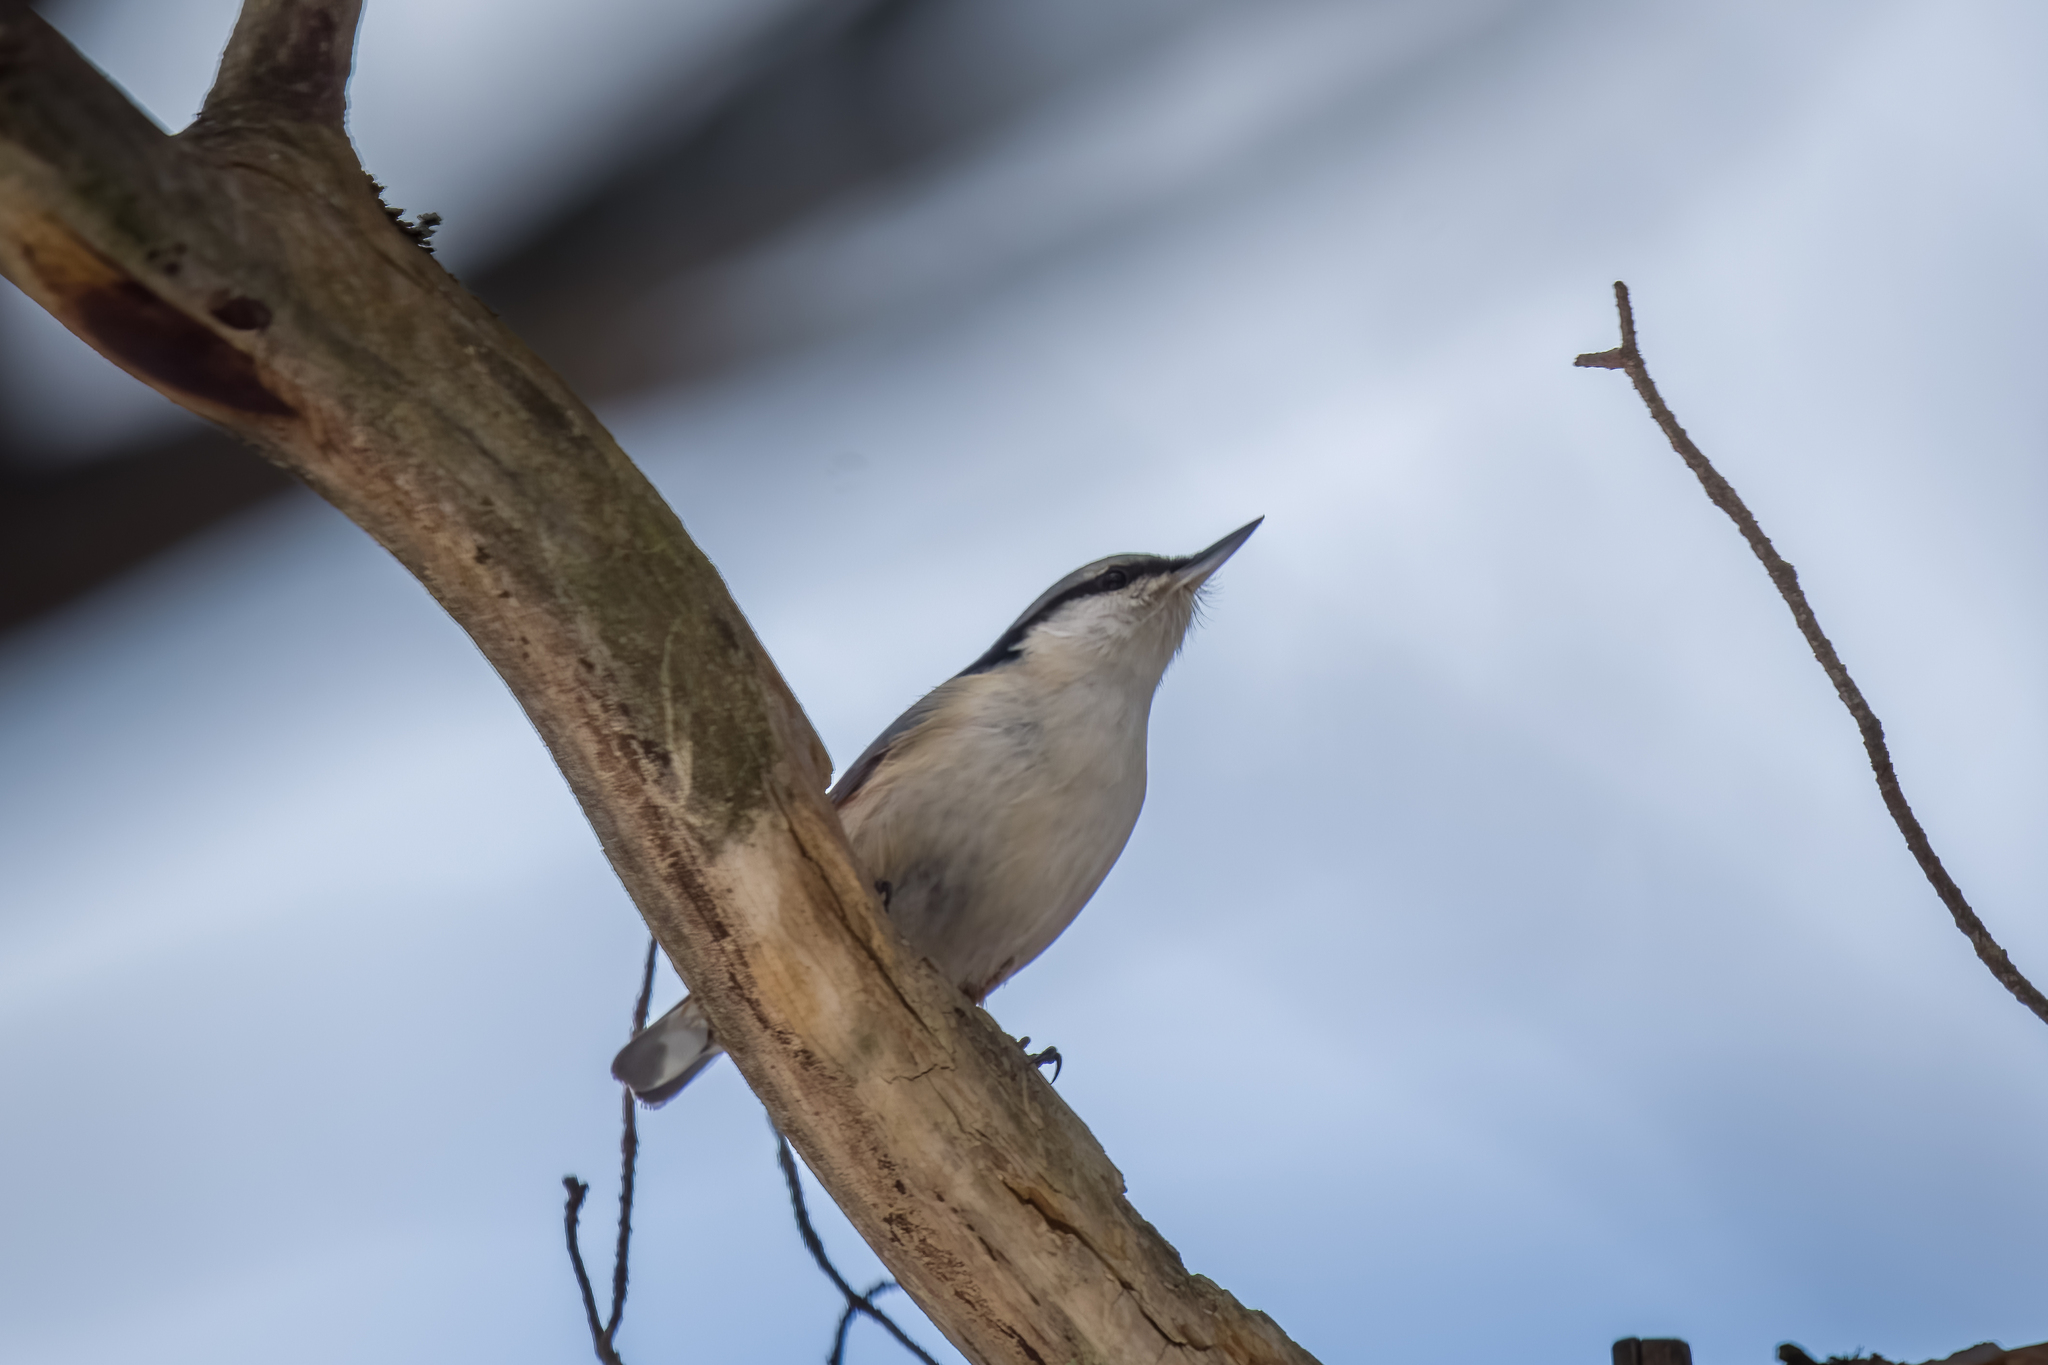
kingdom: Animalia
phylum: Chordata
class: Aves
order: Passeriformes
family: Sittidae
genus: Sitta
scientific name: Sitta europaea
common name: Eurasian nuthatch
